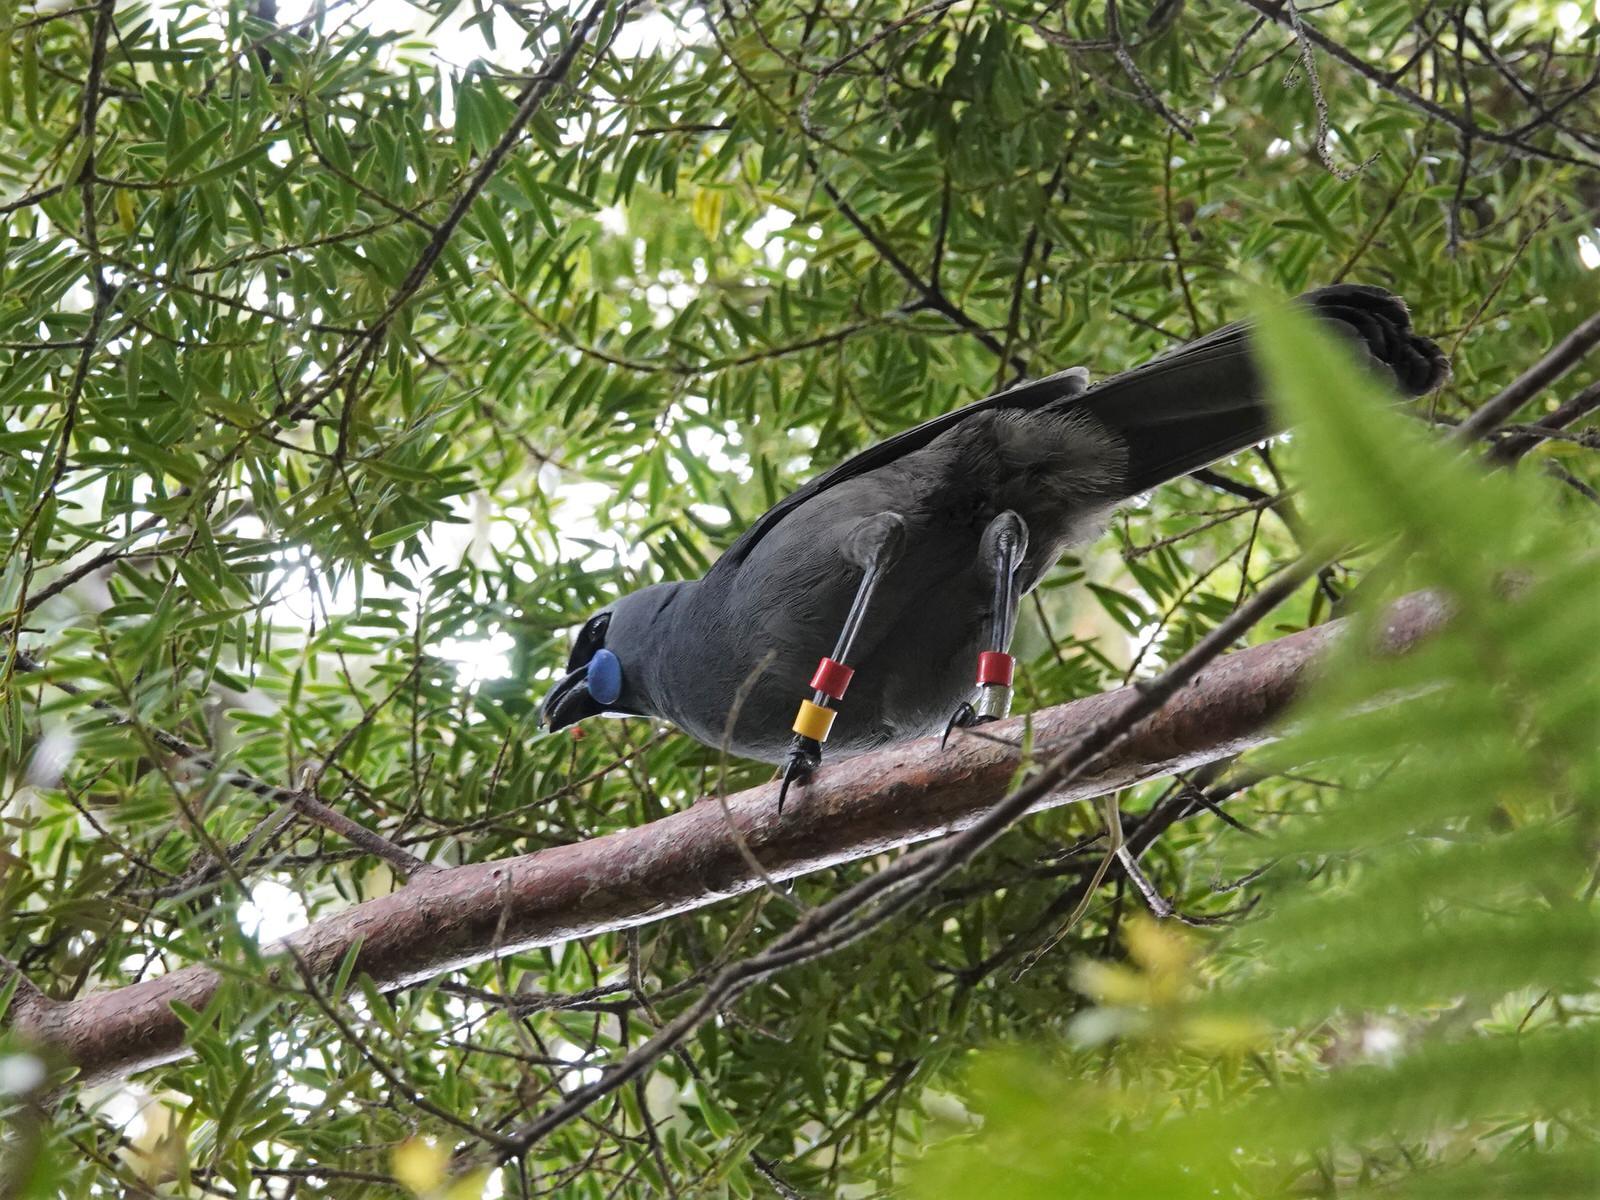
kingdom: Animalia
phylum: Chordata
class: Aves
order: Passeriformes
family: Callaeatidae
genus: Callaeas
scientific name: Callaeas cinereus
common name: South island kokako
